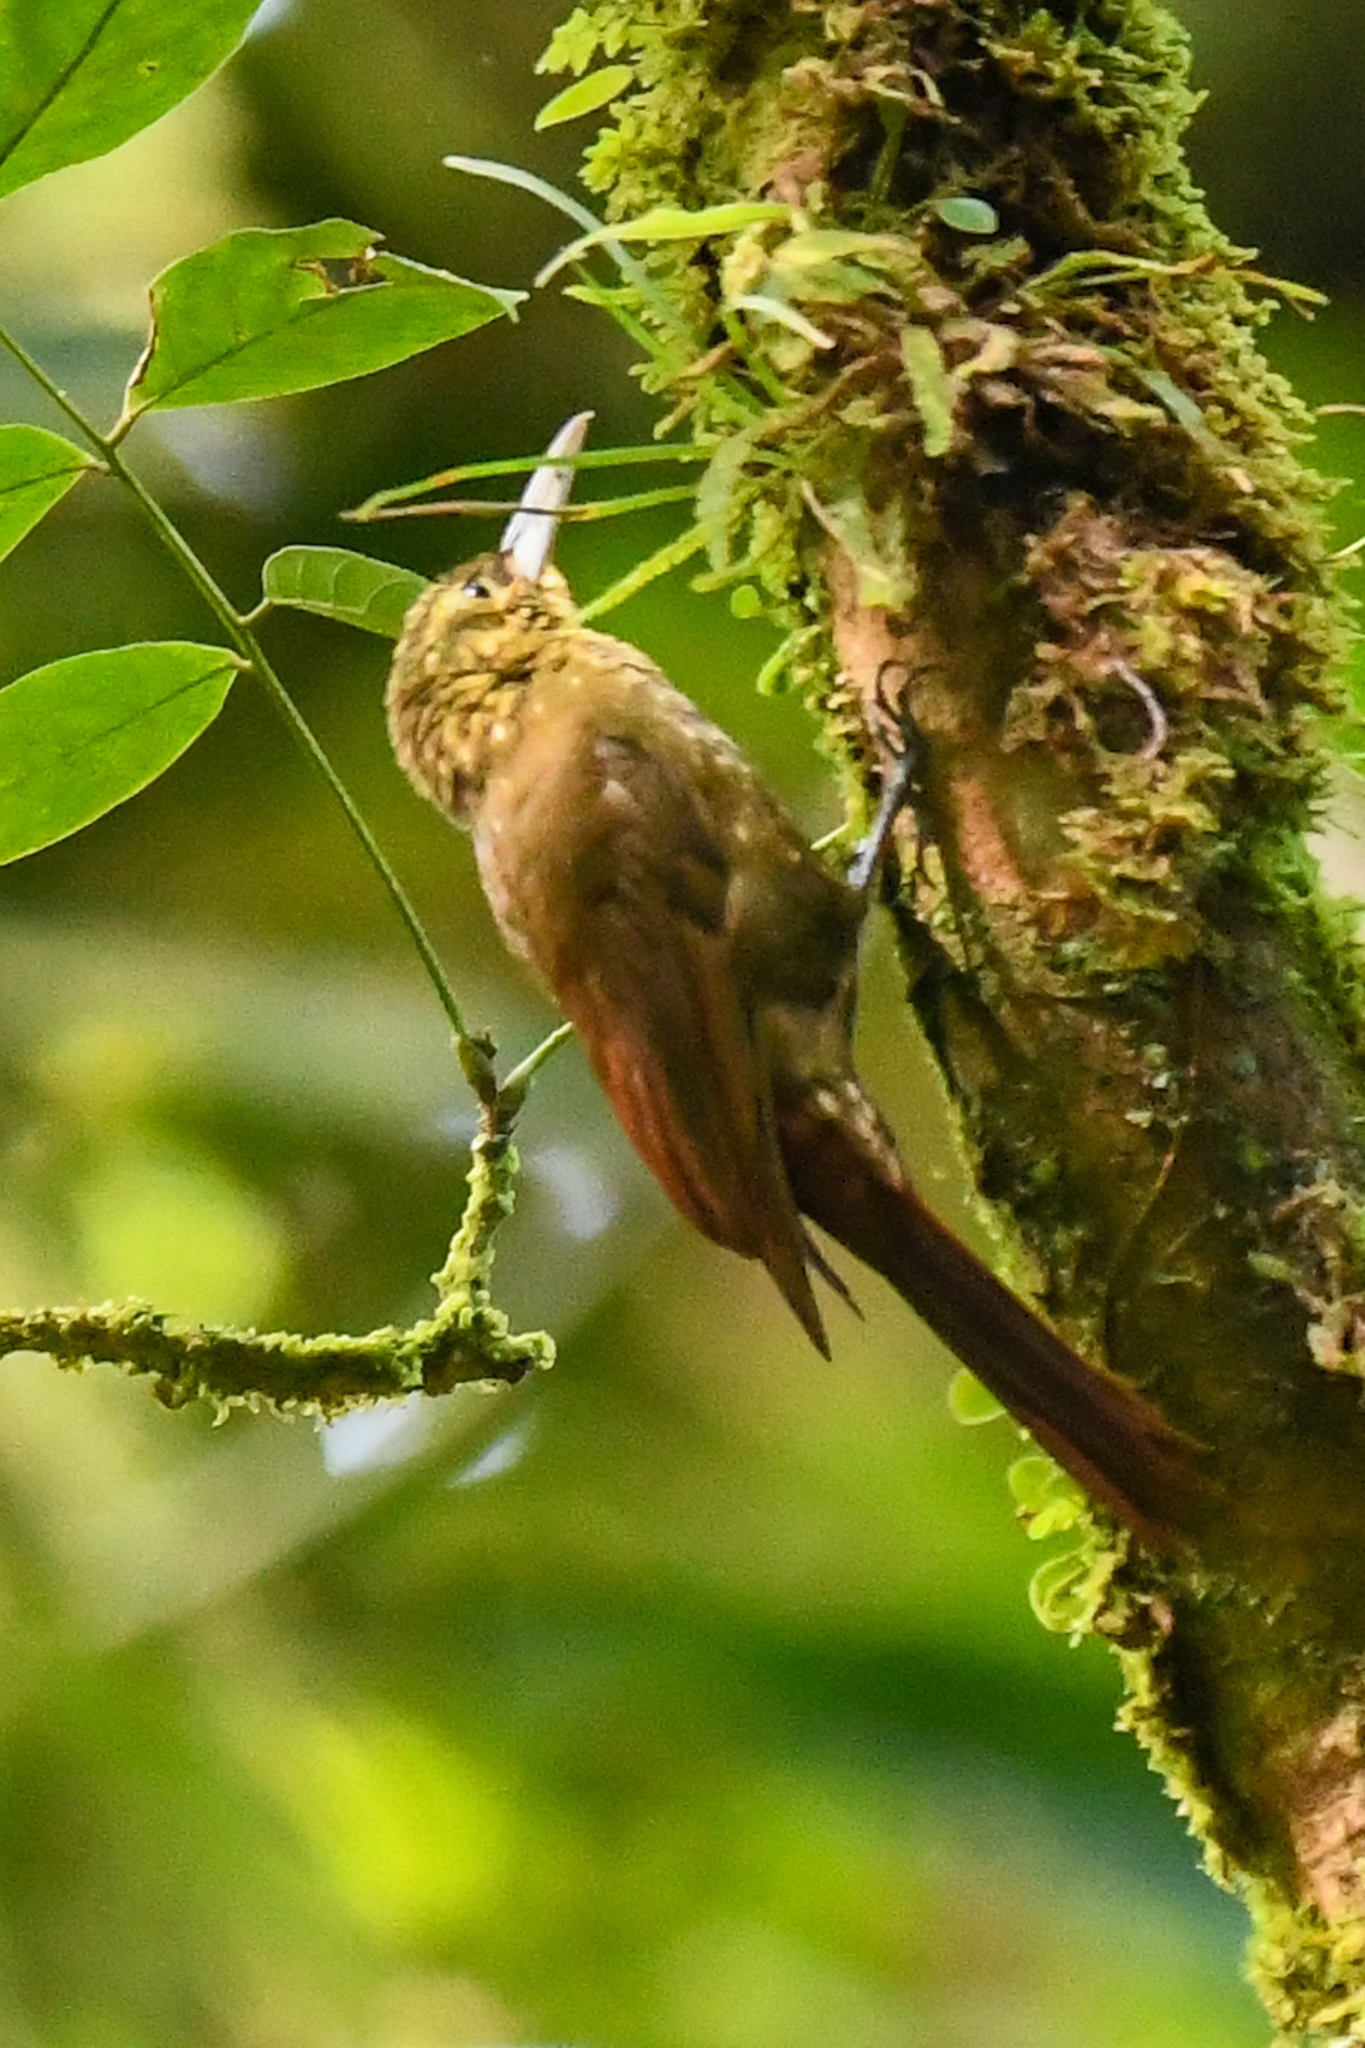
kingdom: Animalia
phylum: Chordata
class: Aves
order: Passeriformes
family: Furnariidae
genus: Xiphorhynchus
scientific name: Xiphorhynchus erythropygius
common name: Spotted woodcreeper
